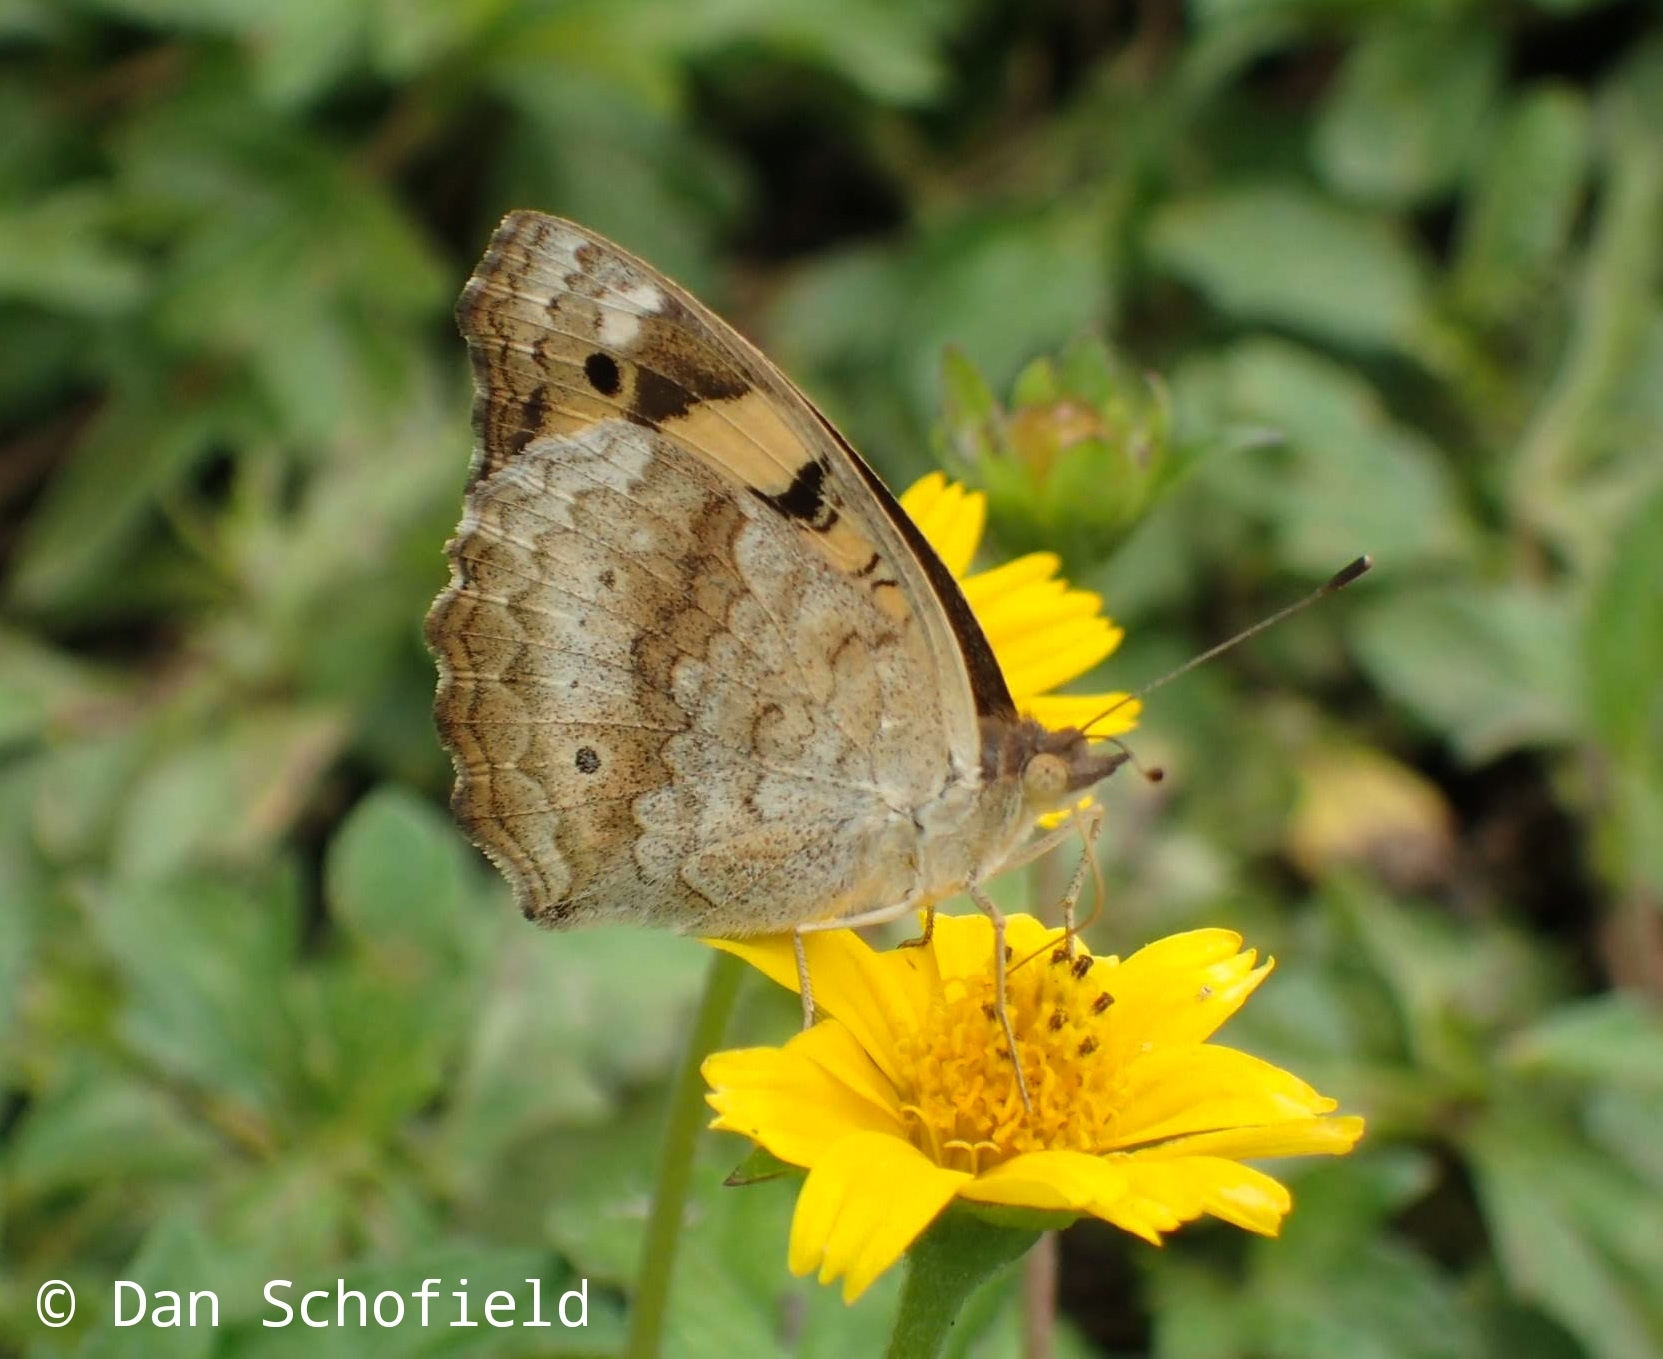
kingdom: Animalia
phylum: Arthropoda
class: Insecta
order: Lepidoptera
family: Nymphalidae
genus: Junonia
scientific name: Junonia hierta
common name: Yellow pansy
